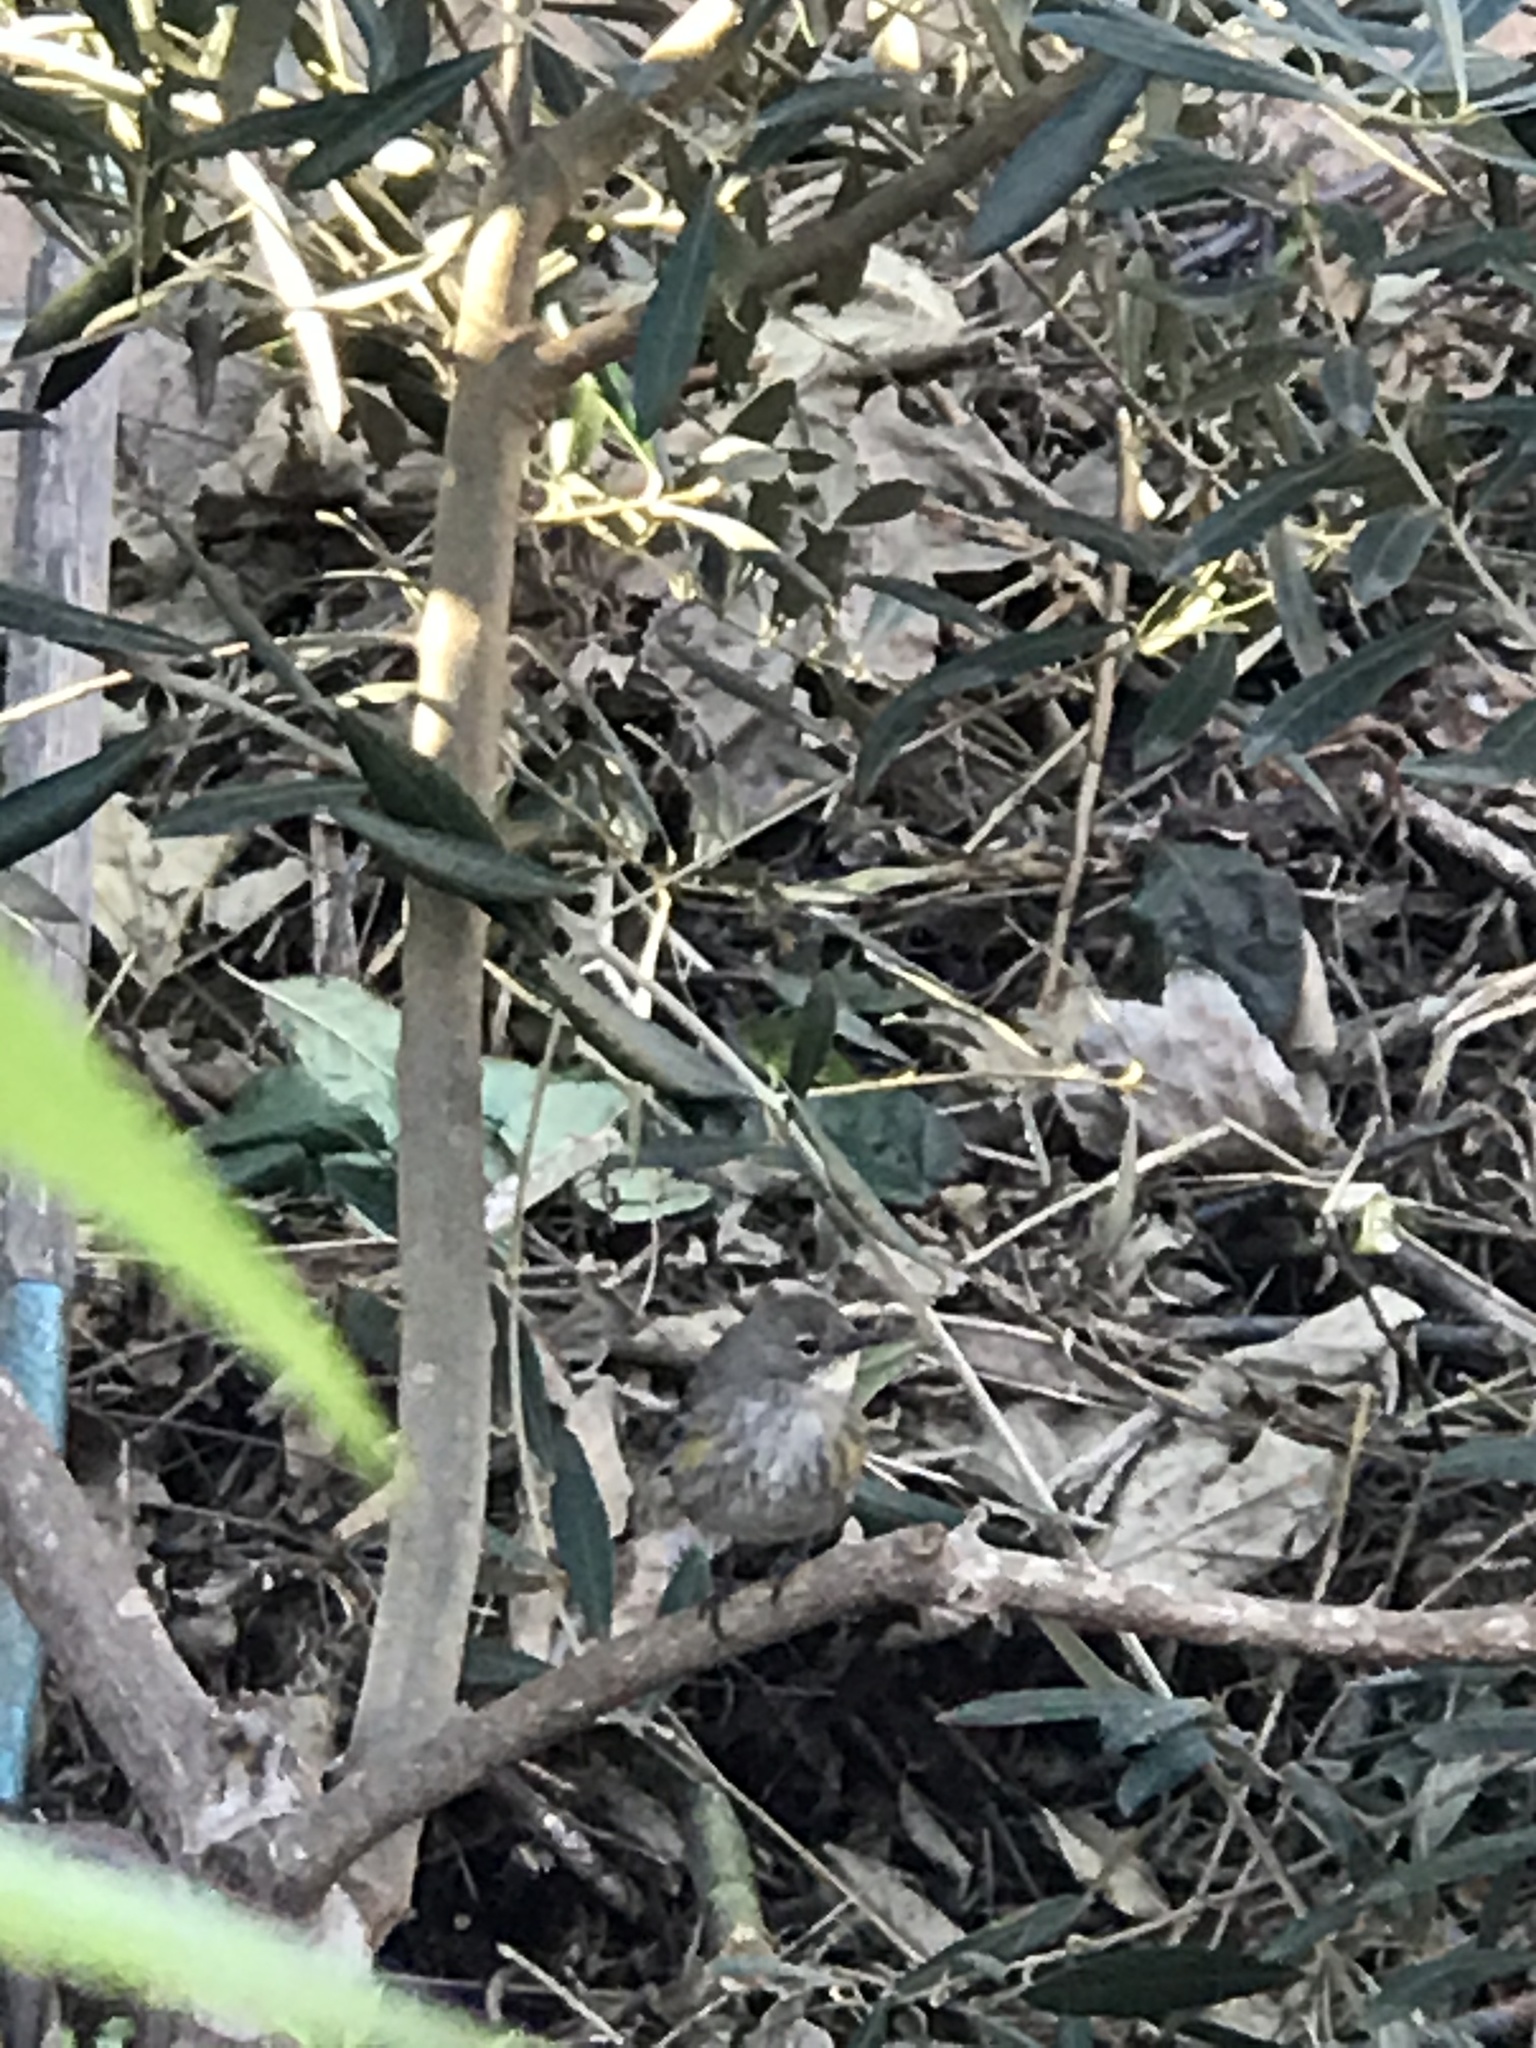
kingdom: Animalia
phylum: Chordata
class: Aves
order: Passeriformes
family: Parulidae
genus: Setophaga
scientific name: Setophaga coronata
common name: Myrtle warbler
